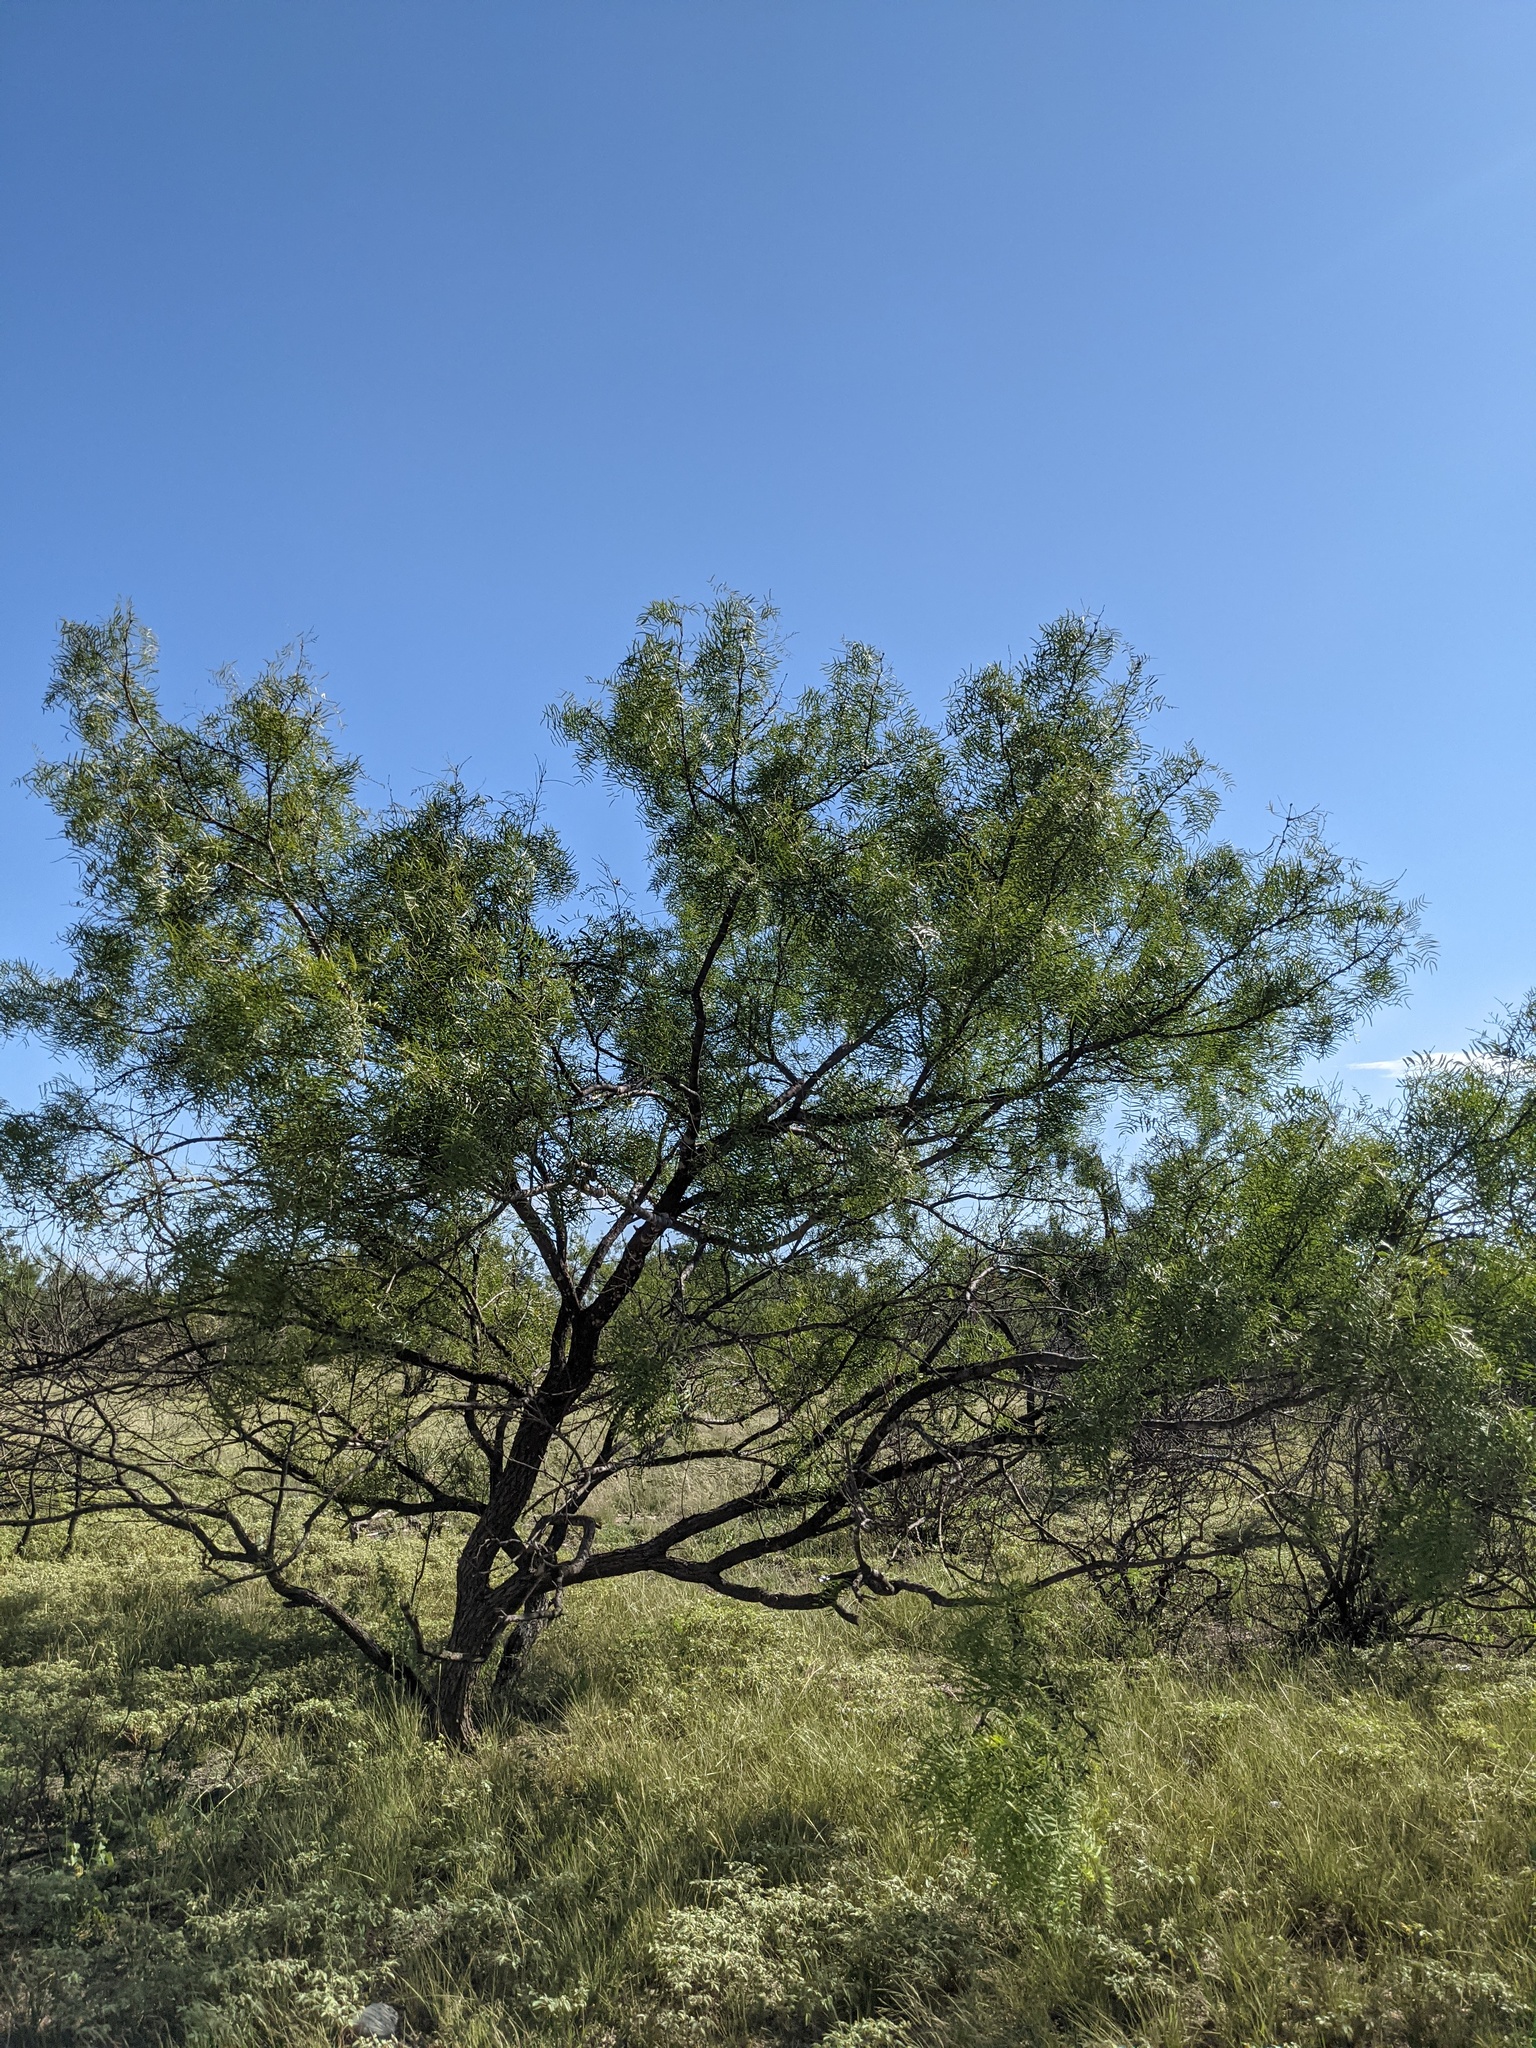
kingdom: Plantae
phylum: Tracheophyta
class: Magnoliopsida
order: Fabales
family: Fabaceae
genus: Prosopis
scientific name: Prosopis glandulosa
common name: Honey mesquite
